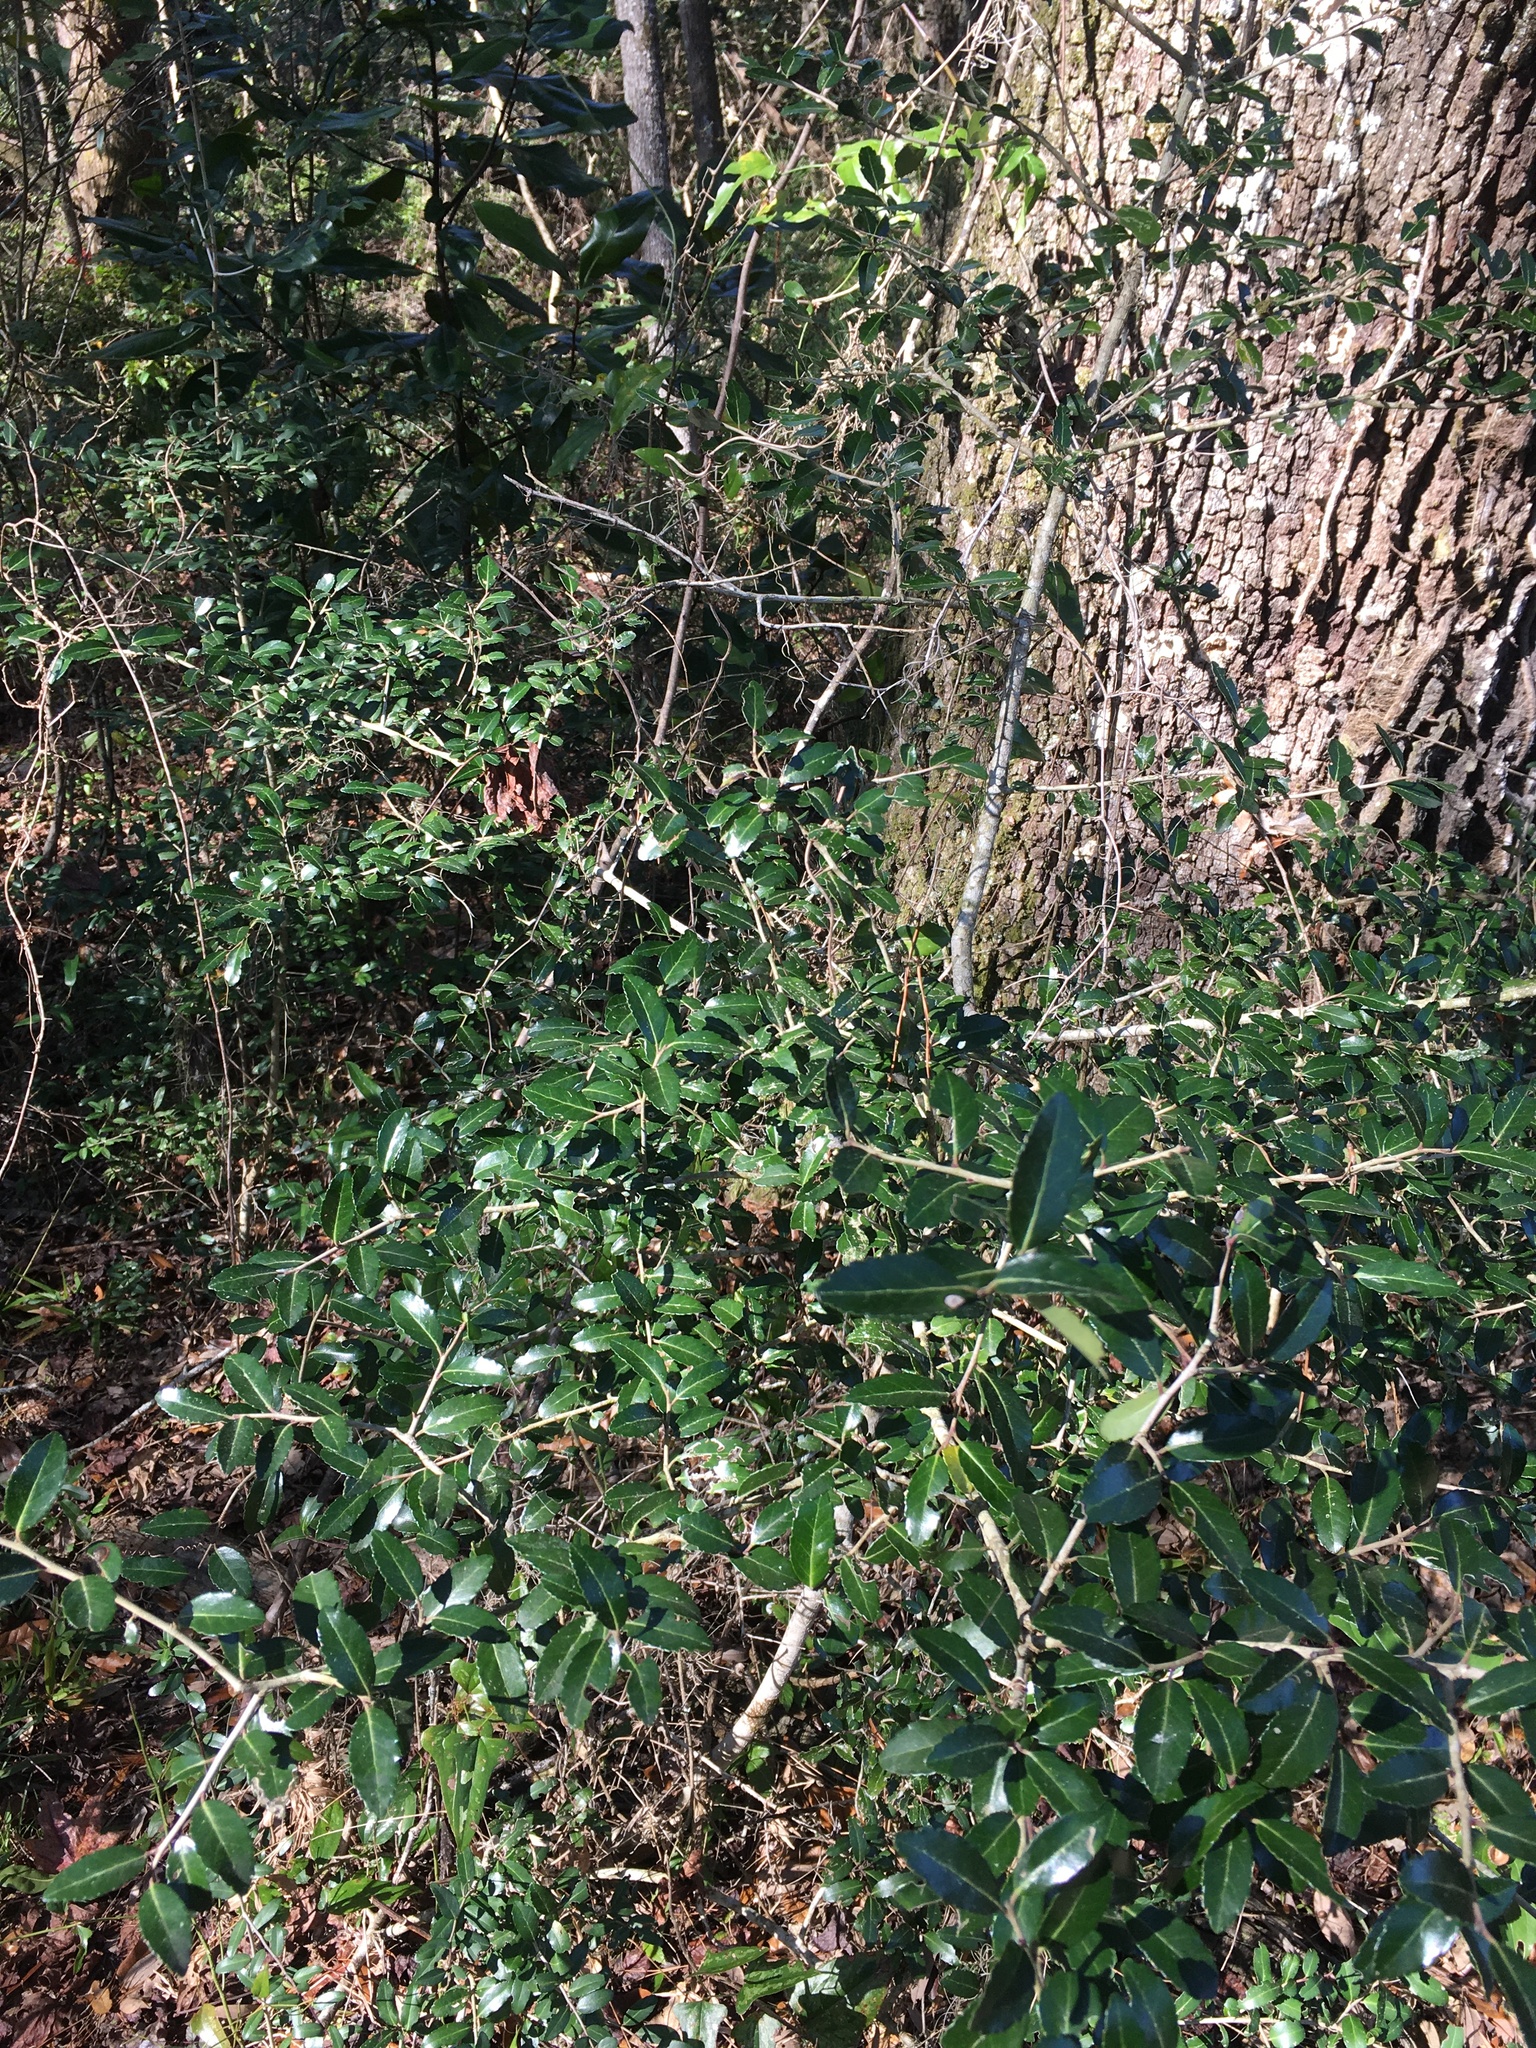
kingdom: Plantae
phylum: Tracheophyta
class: Magnoliopsida
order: Aquifoliales
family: Aquifoliaceae
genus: Ilex
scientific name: Ilex vomitoria
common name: Yaupon holly
